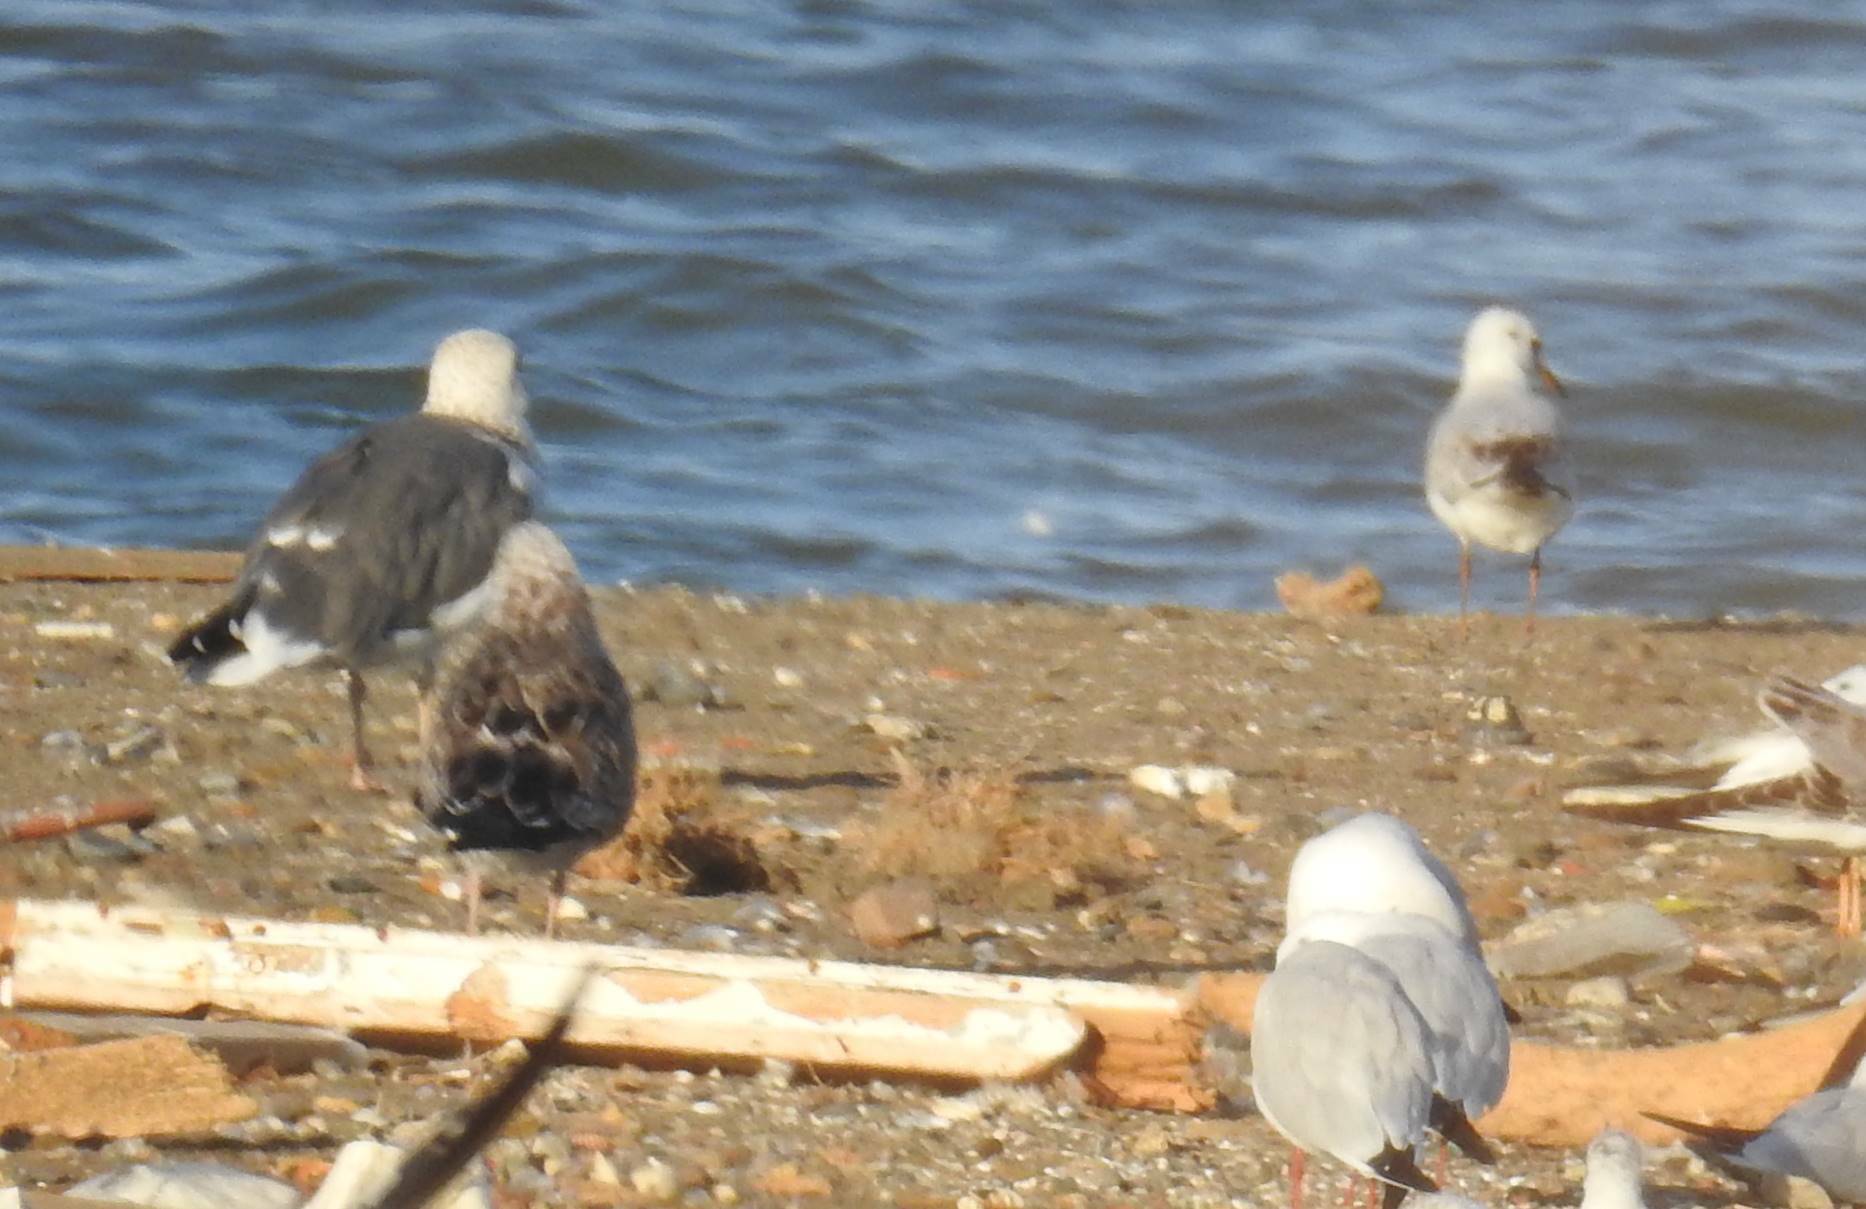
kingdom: Animalia
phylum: Chordata
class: Aves
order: Charadriiformes
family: Laridae
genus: Larus
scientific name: Larus fuscus
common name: Lesser black-backed gull
